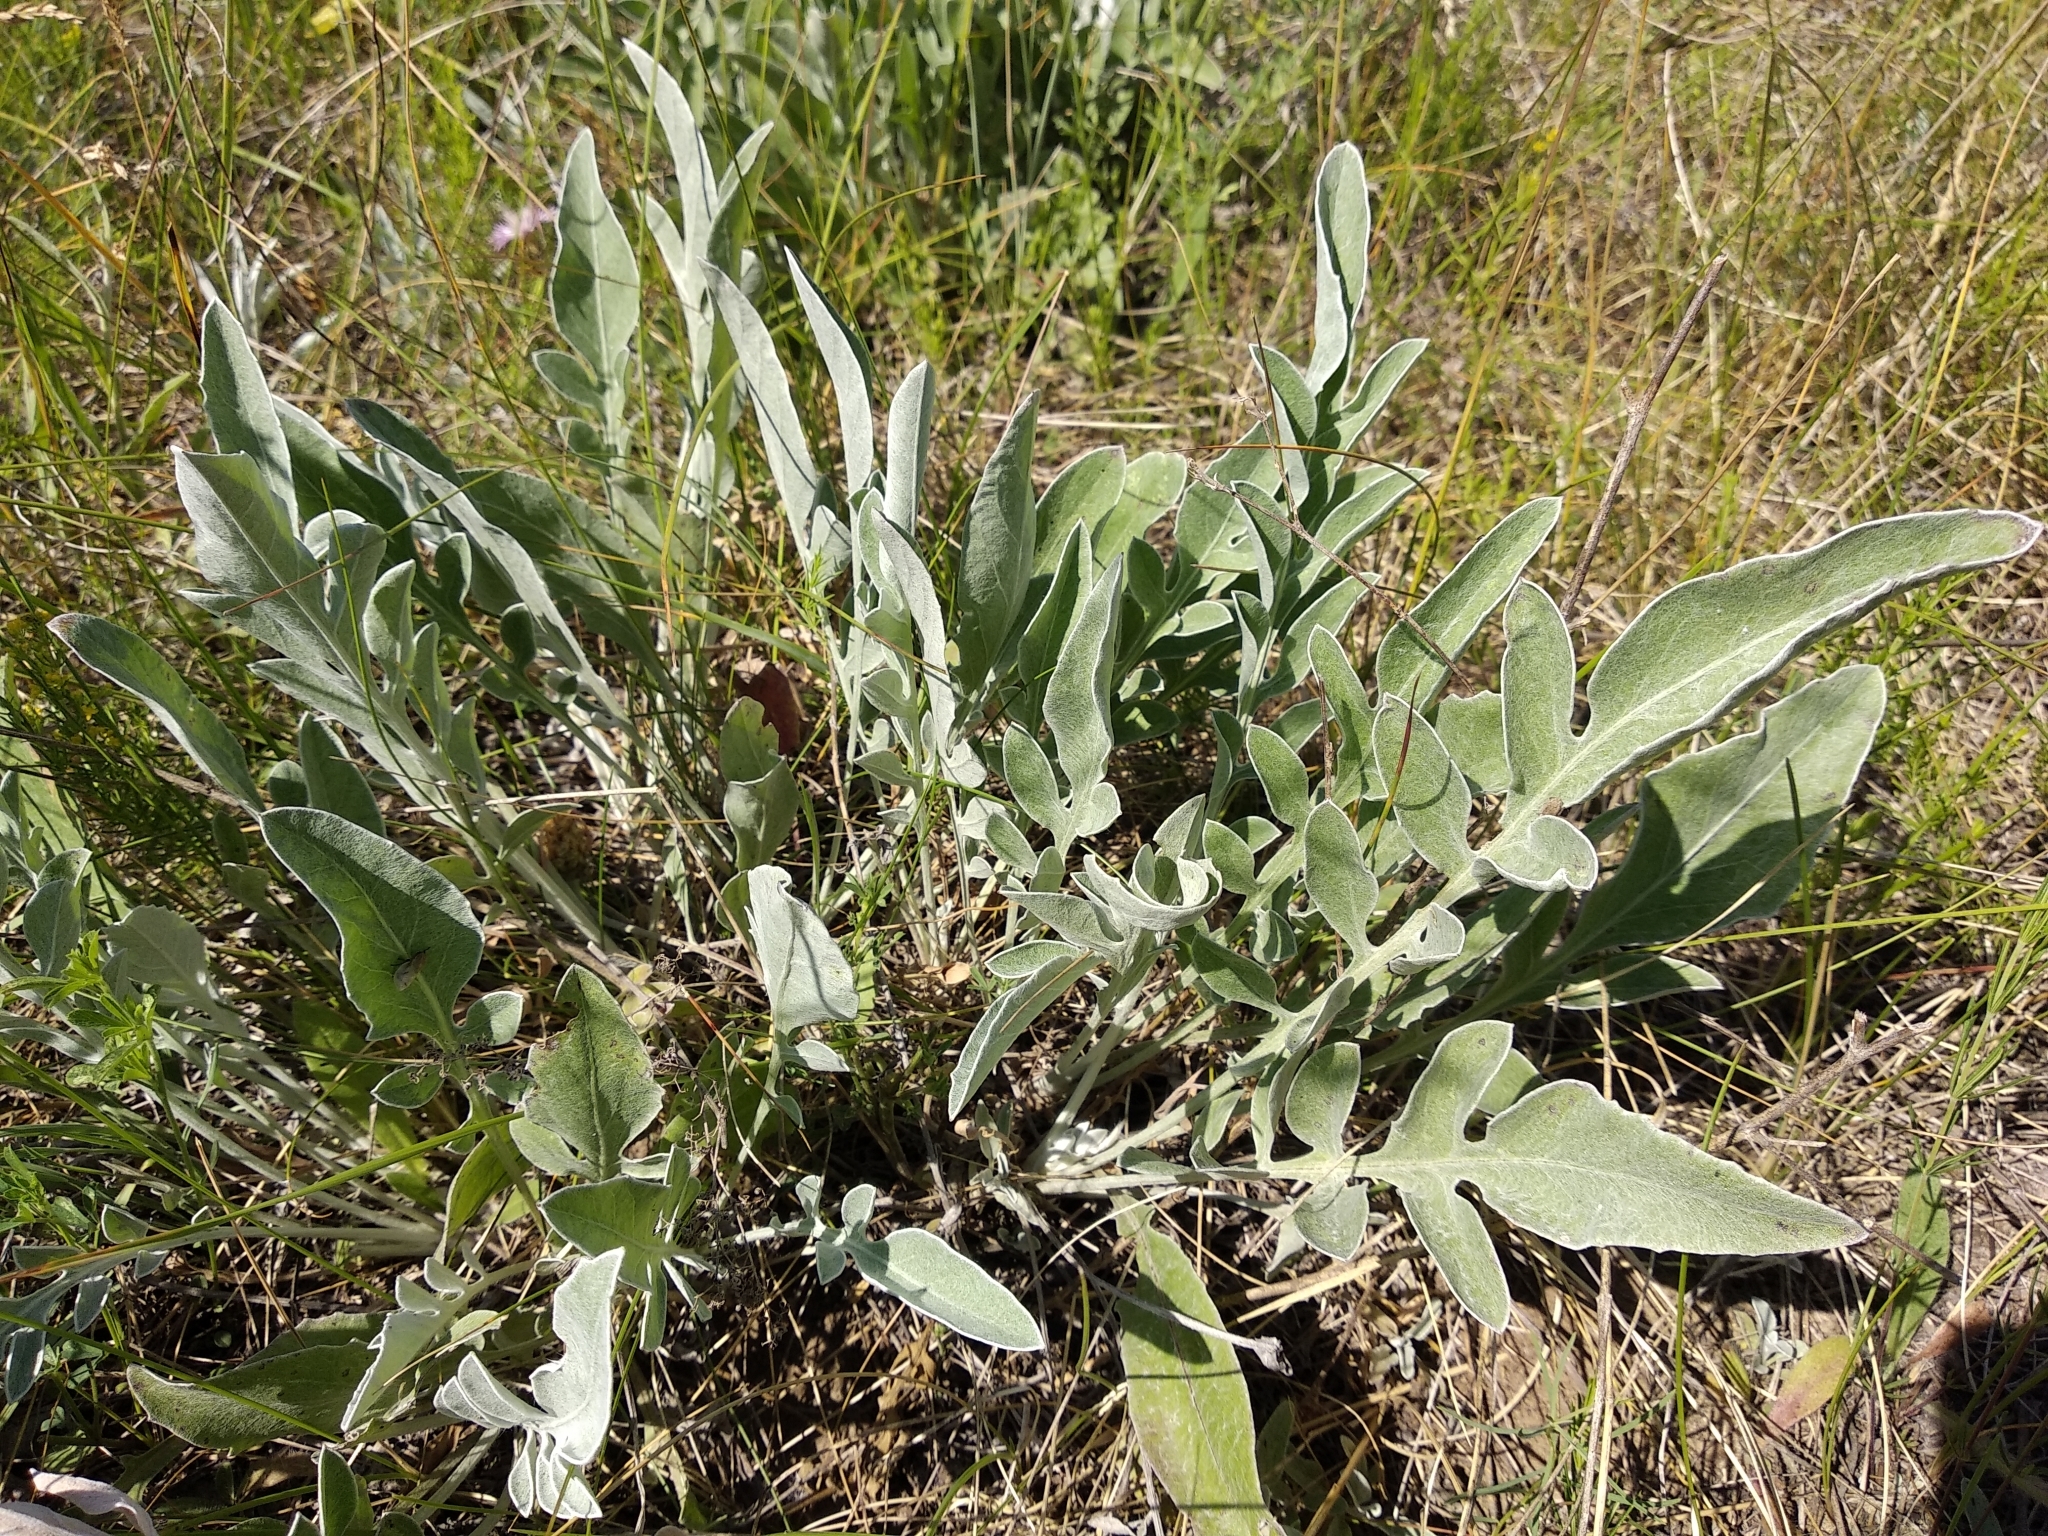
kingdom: Plantae
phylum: Tracheophyta
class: Magnoliopsida
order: Asterales
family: Asteraceae
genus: Psephellus
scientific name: Psephellus turgaicus
